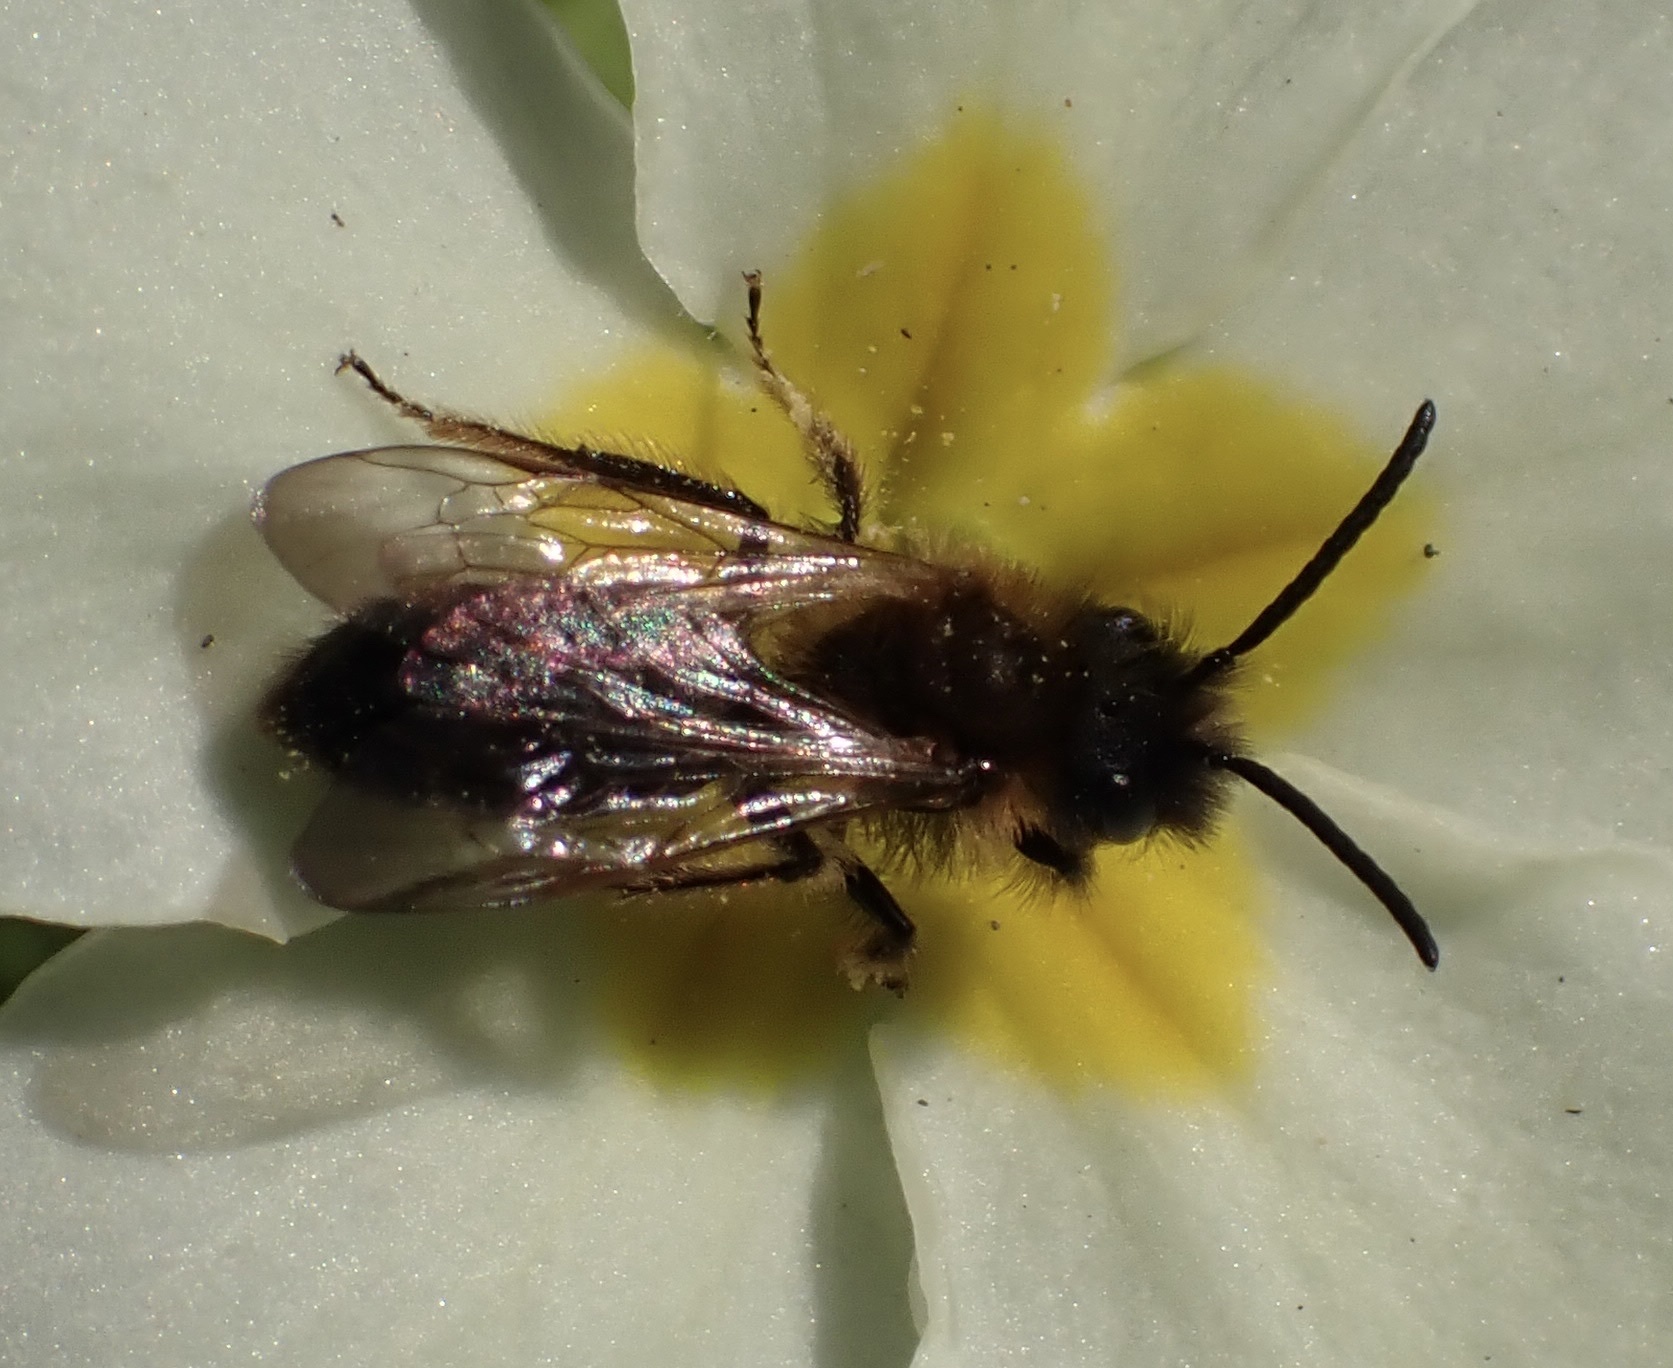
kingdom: Animalia
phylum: Arthropoda
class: Insecta
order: Hymenoptera
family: Andrenidae
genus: Andrena
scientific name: Andrena bicolor
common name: Gwynne's mining bee
